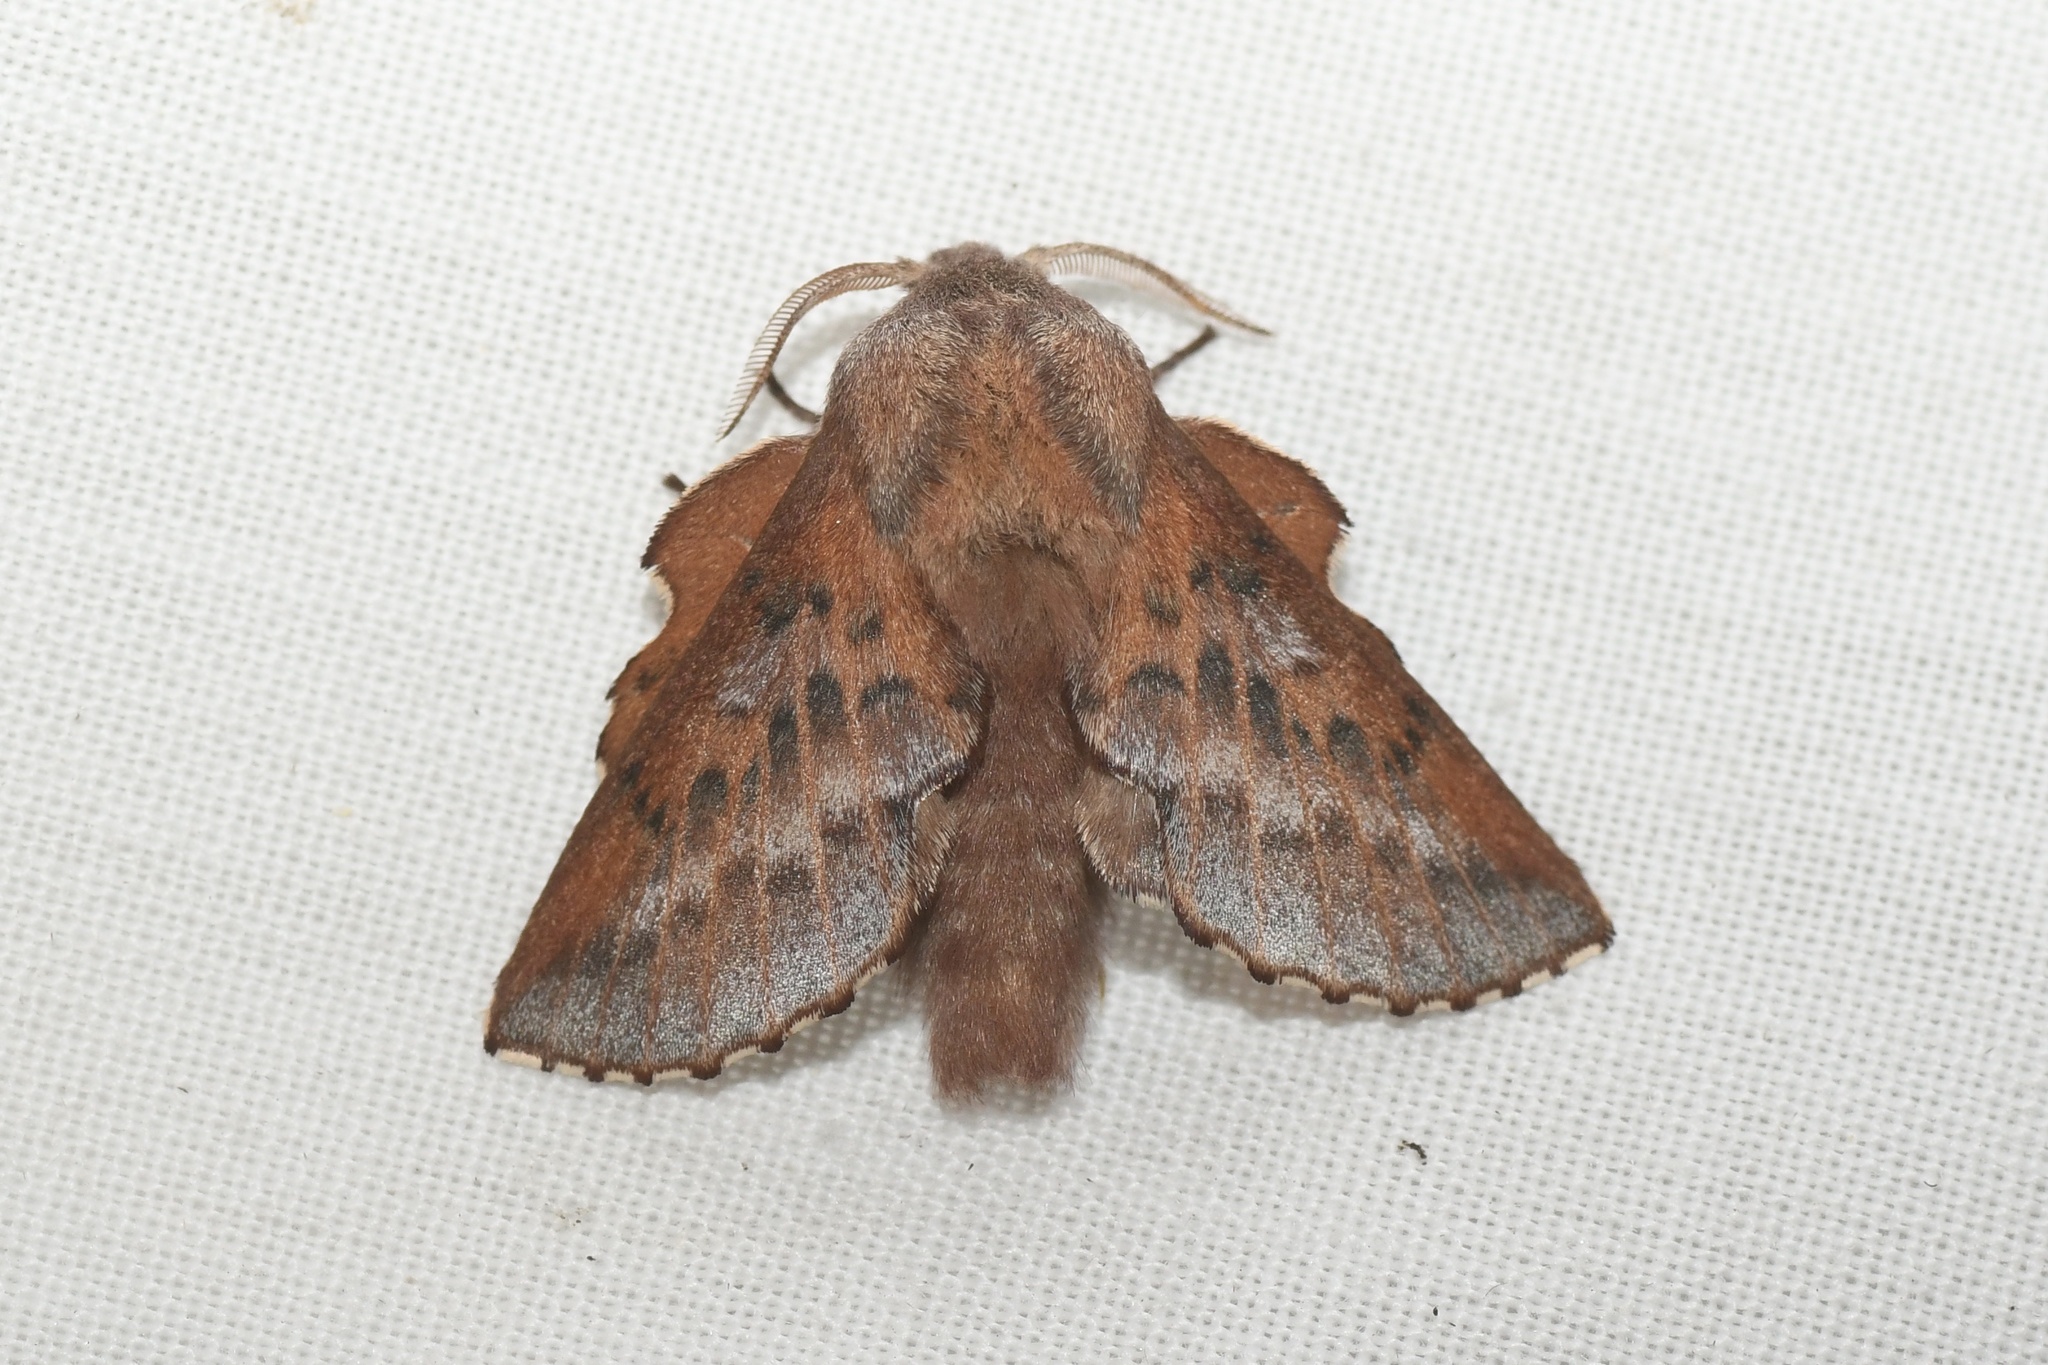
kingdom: Animalia
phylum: Arthropoda
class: Insecta
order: Lepidoptera
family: Lasiocampidae
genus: Phyllodesma
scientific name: Phyllodesma americana
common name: American lappet moth
